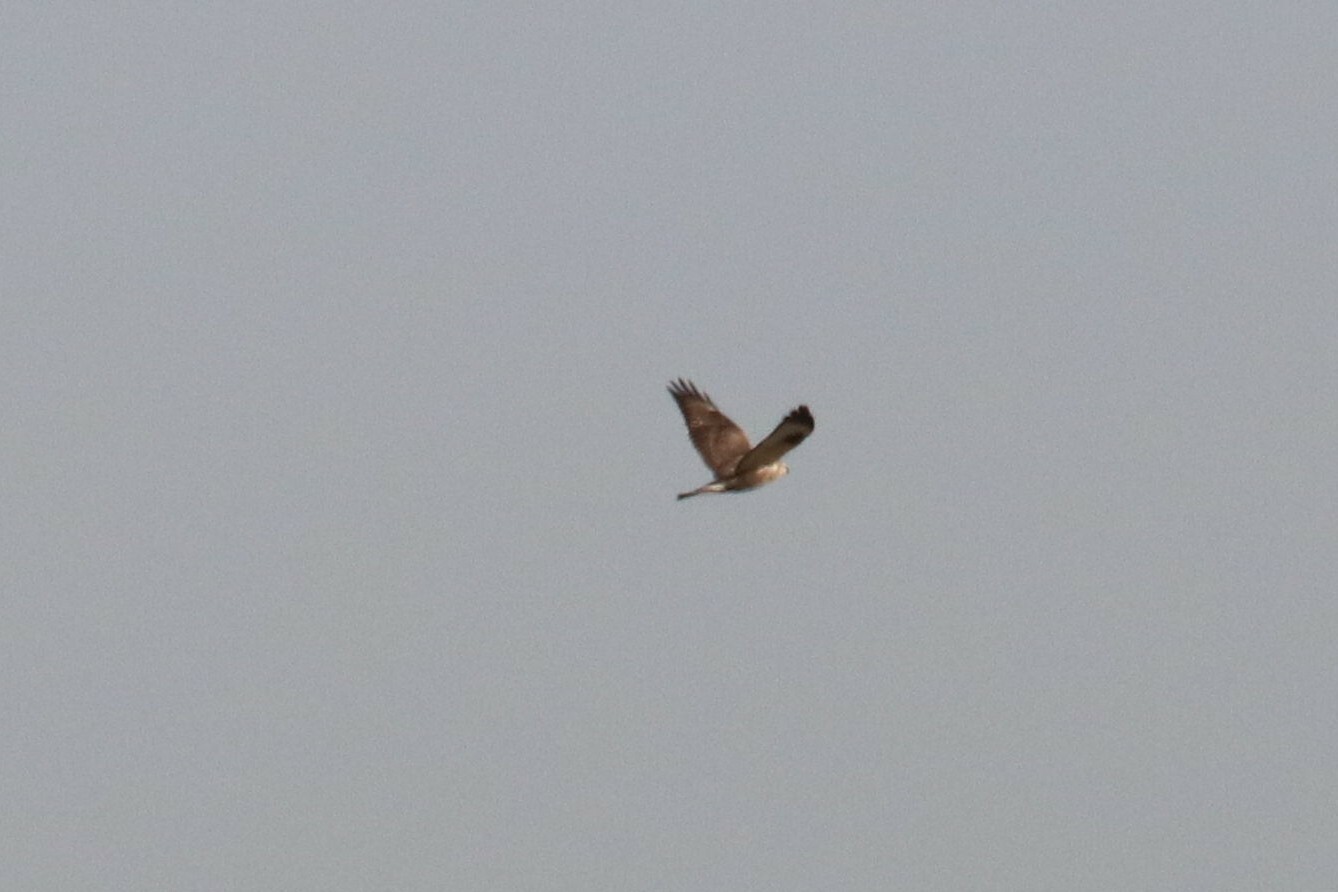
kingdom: Animalia
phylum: Chordata
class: Aves
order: Accipitriformes
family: Accipitridae
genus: Buteo
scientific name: Buteo lagopus
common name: Rough-legged buzzard
